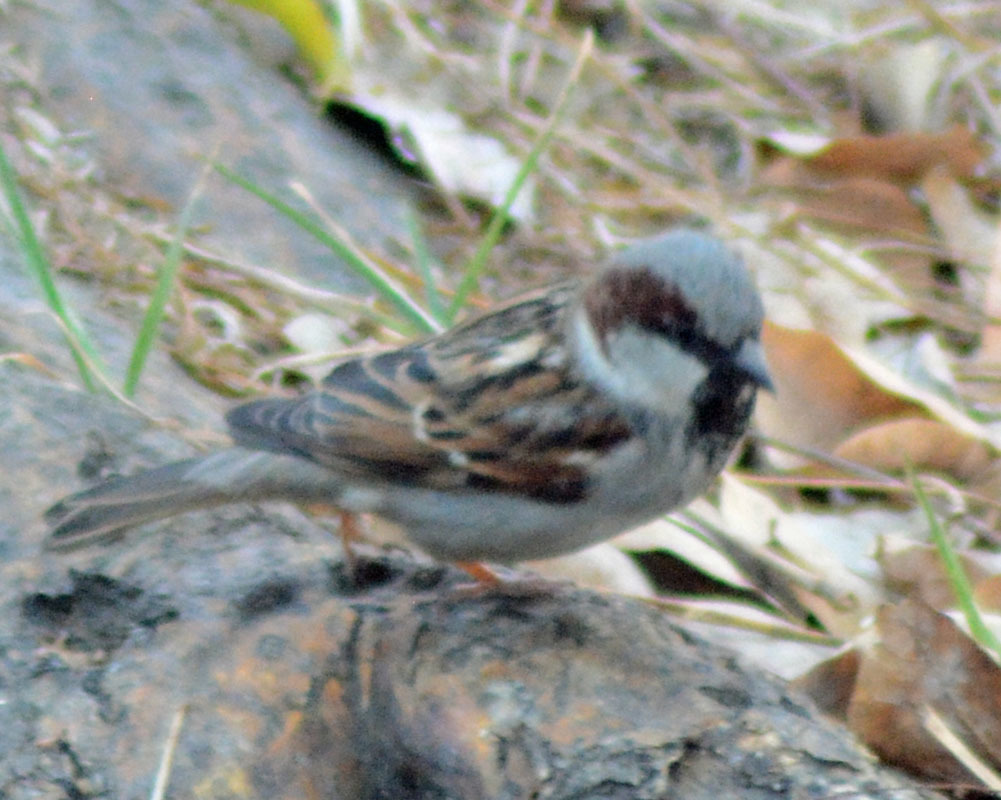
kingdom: Animalia
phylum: Chordata
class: Aves
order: Passeriformes
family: Passeridae
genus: Passer
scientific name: Passer domesticus
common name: House sparrow
